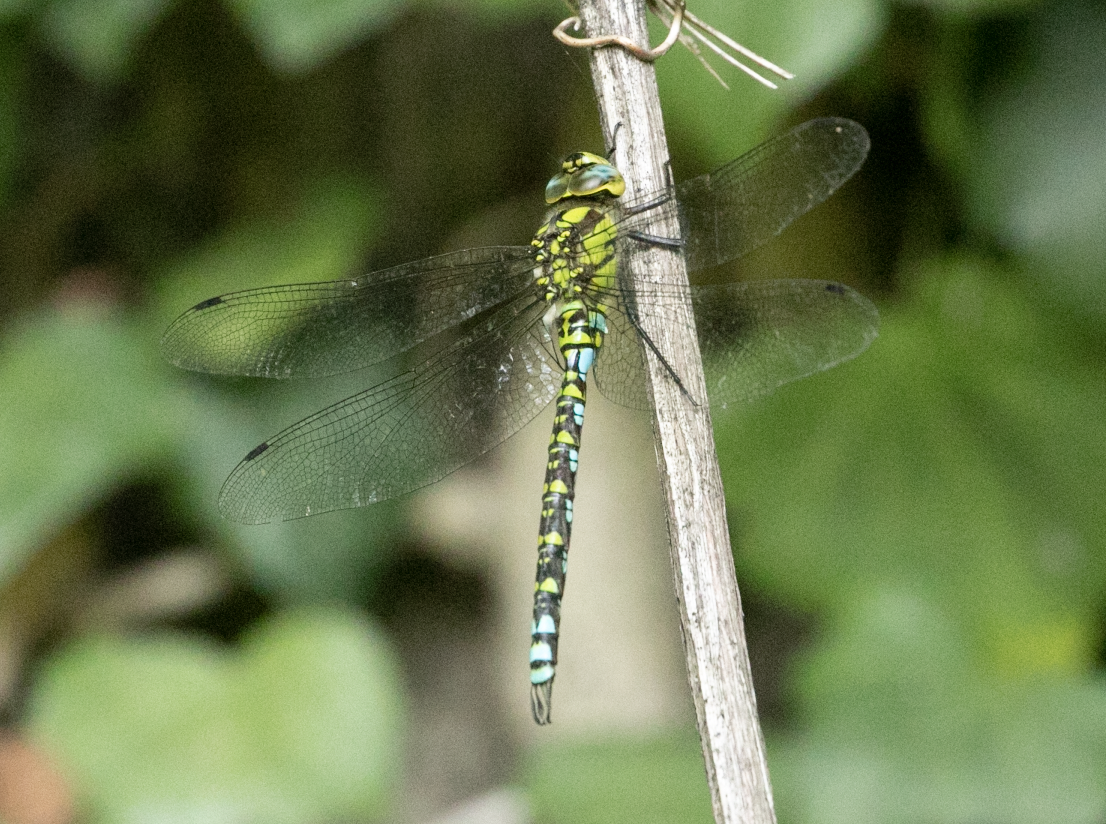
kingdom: Animalia
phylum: Arthropoda
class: Insecta
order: Odonata
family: Aeshnidae
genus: Aeshna
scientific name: Aeshna cyanea
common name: Southern hawker
